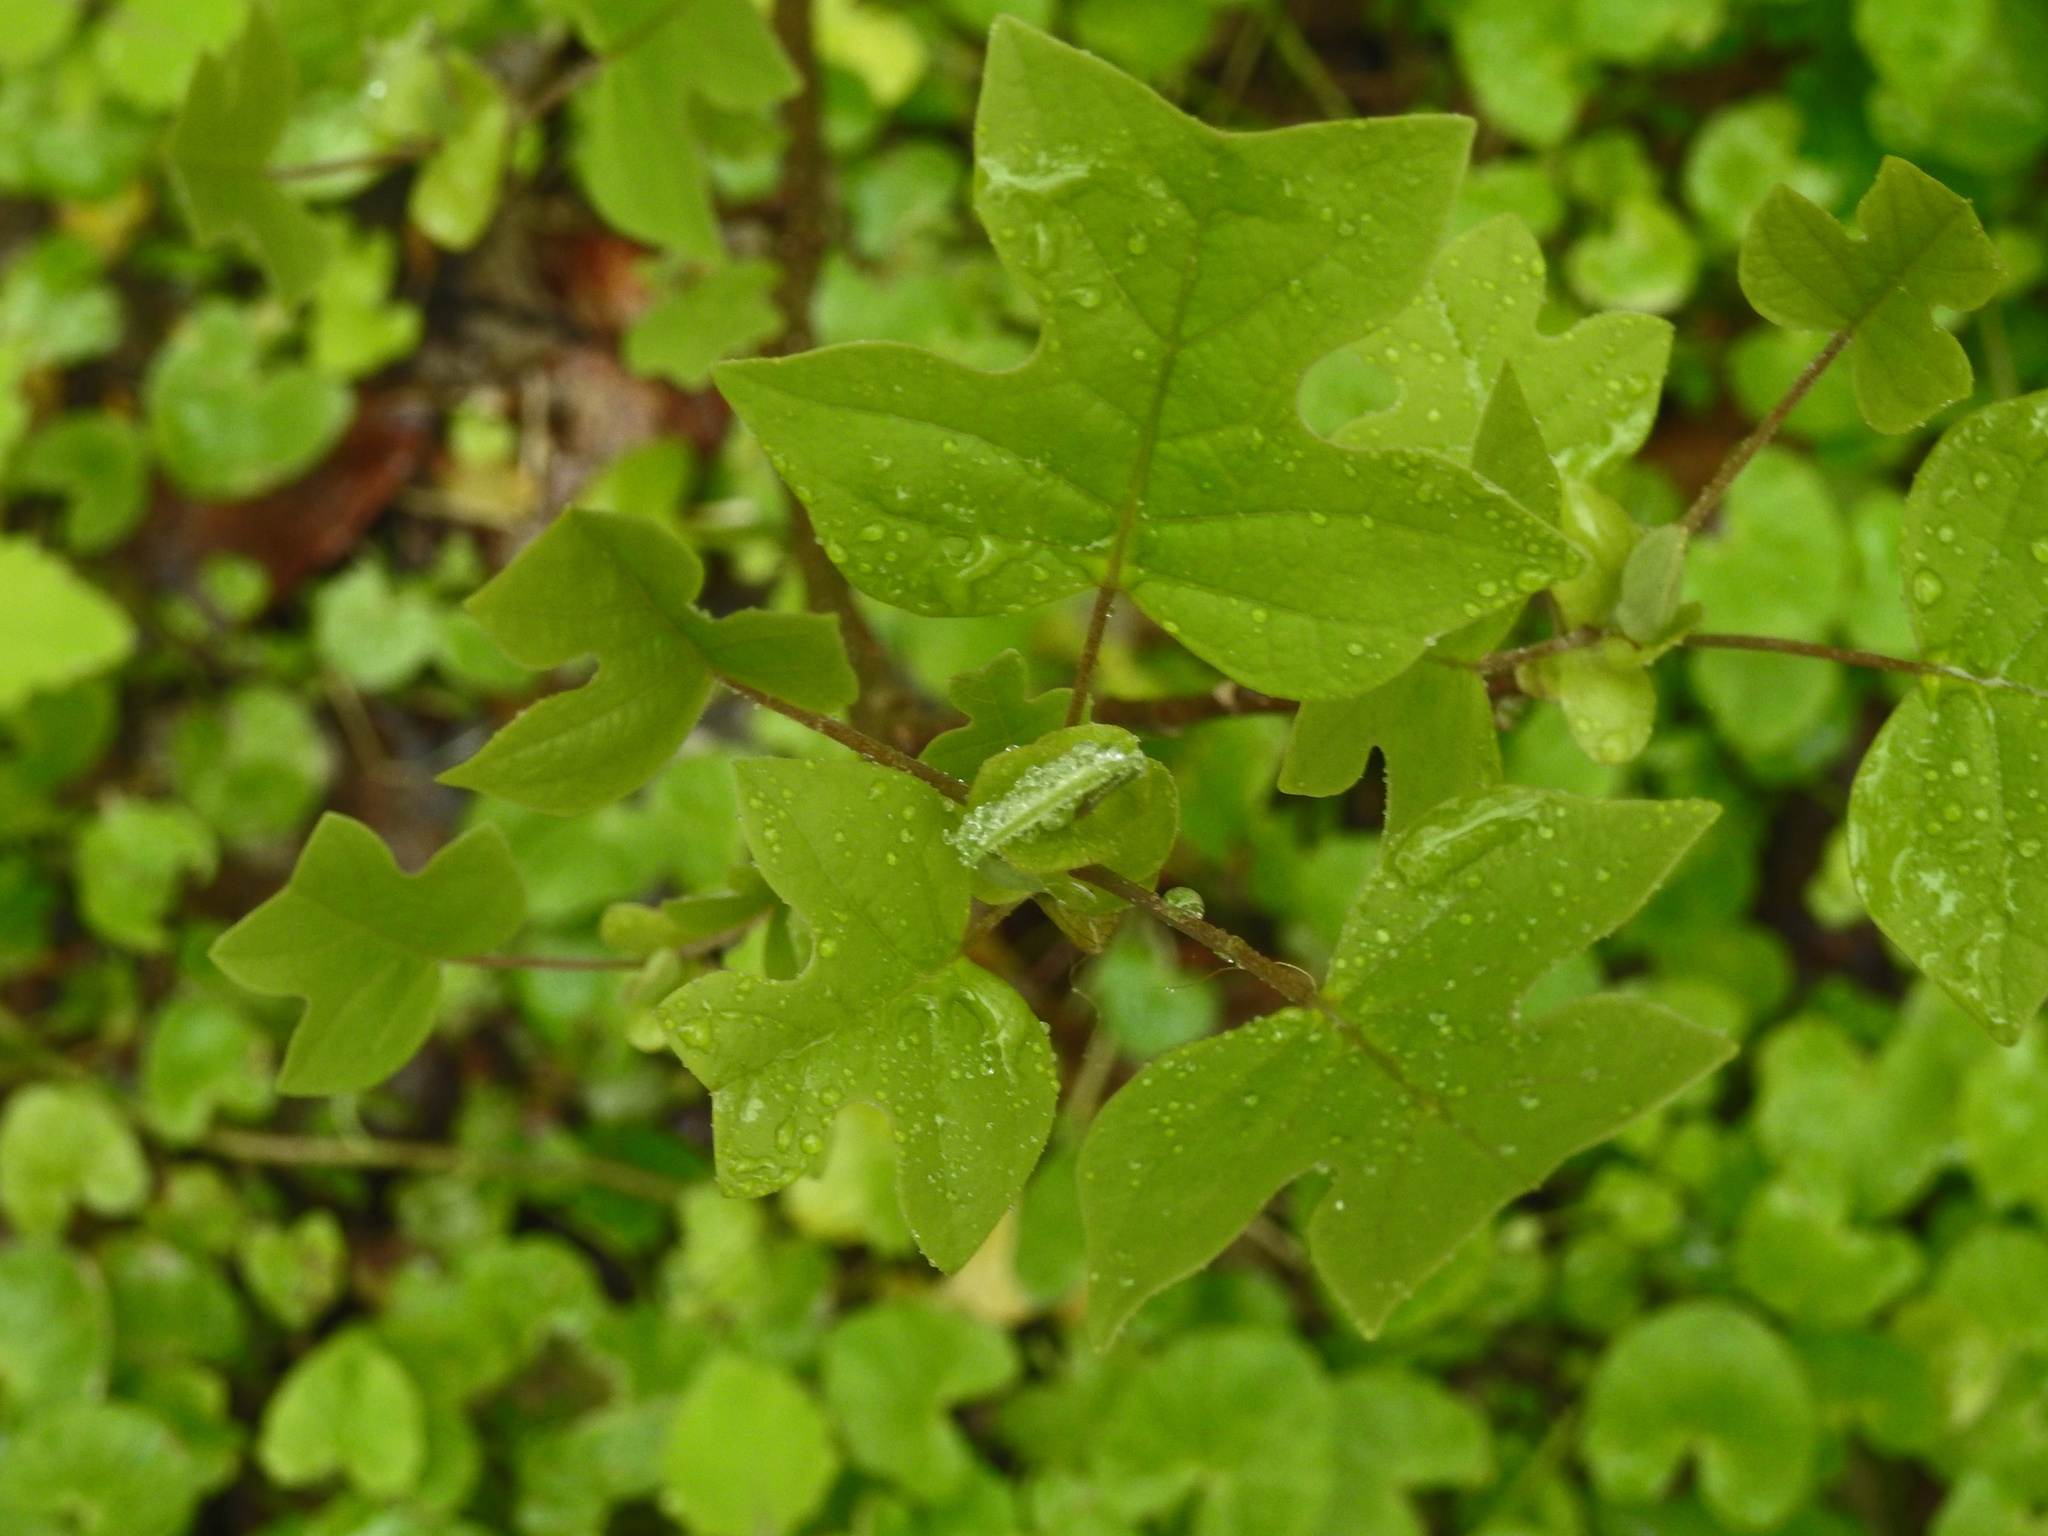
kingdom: Plantae
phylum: Tracheophyta
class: Magnoliopsida
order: Magnoliales
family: Magnoliaceae
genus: Liriodendron
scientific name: Liriodendron tulipifera
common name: Tulip tree
